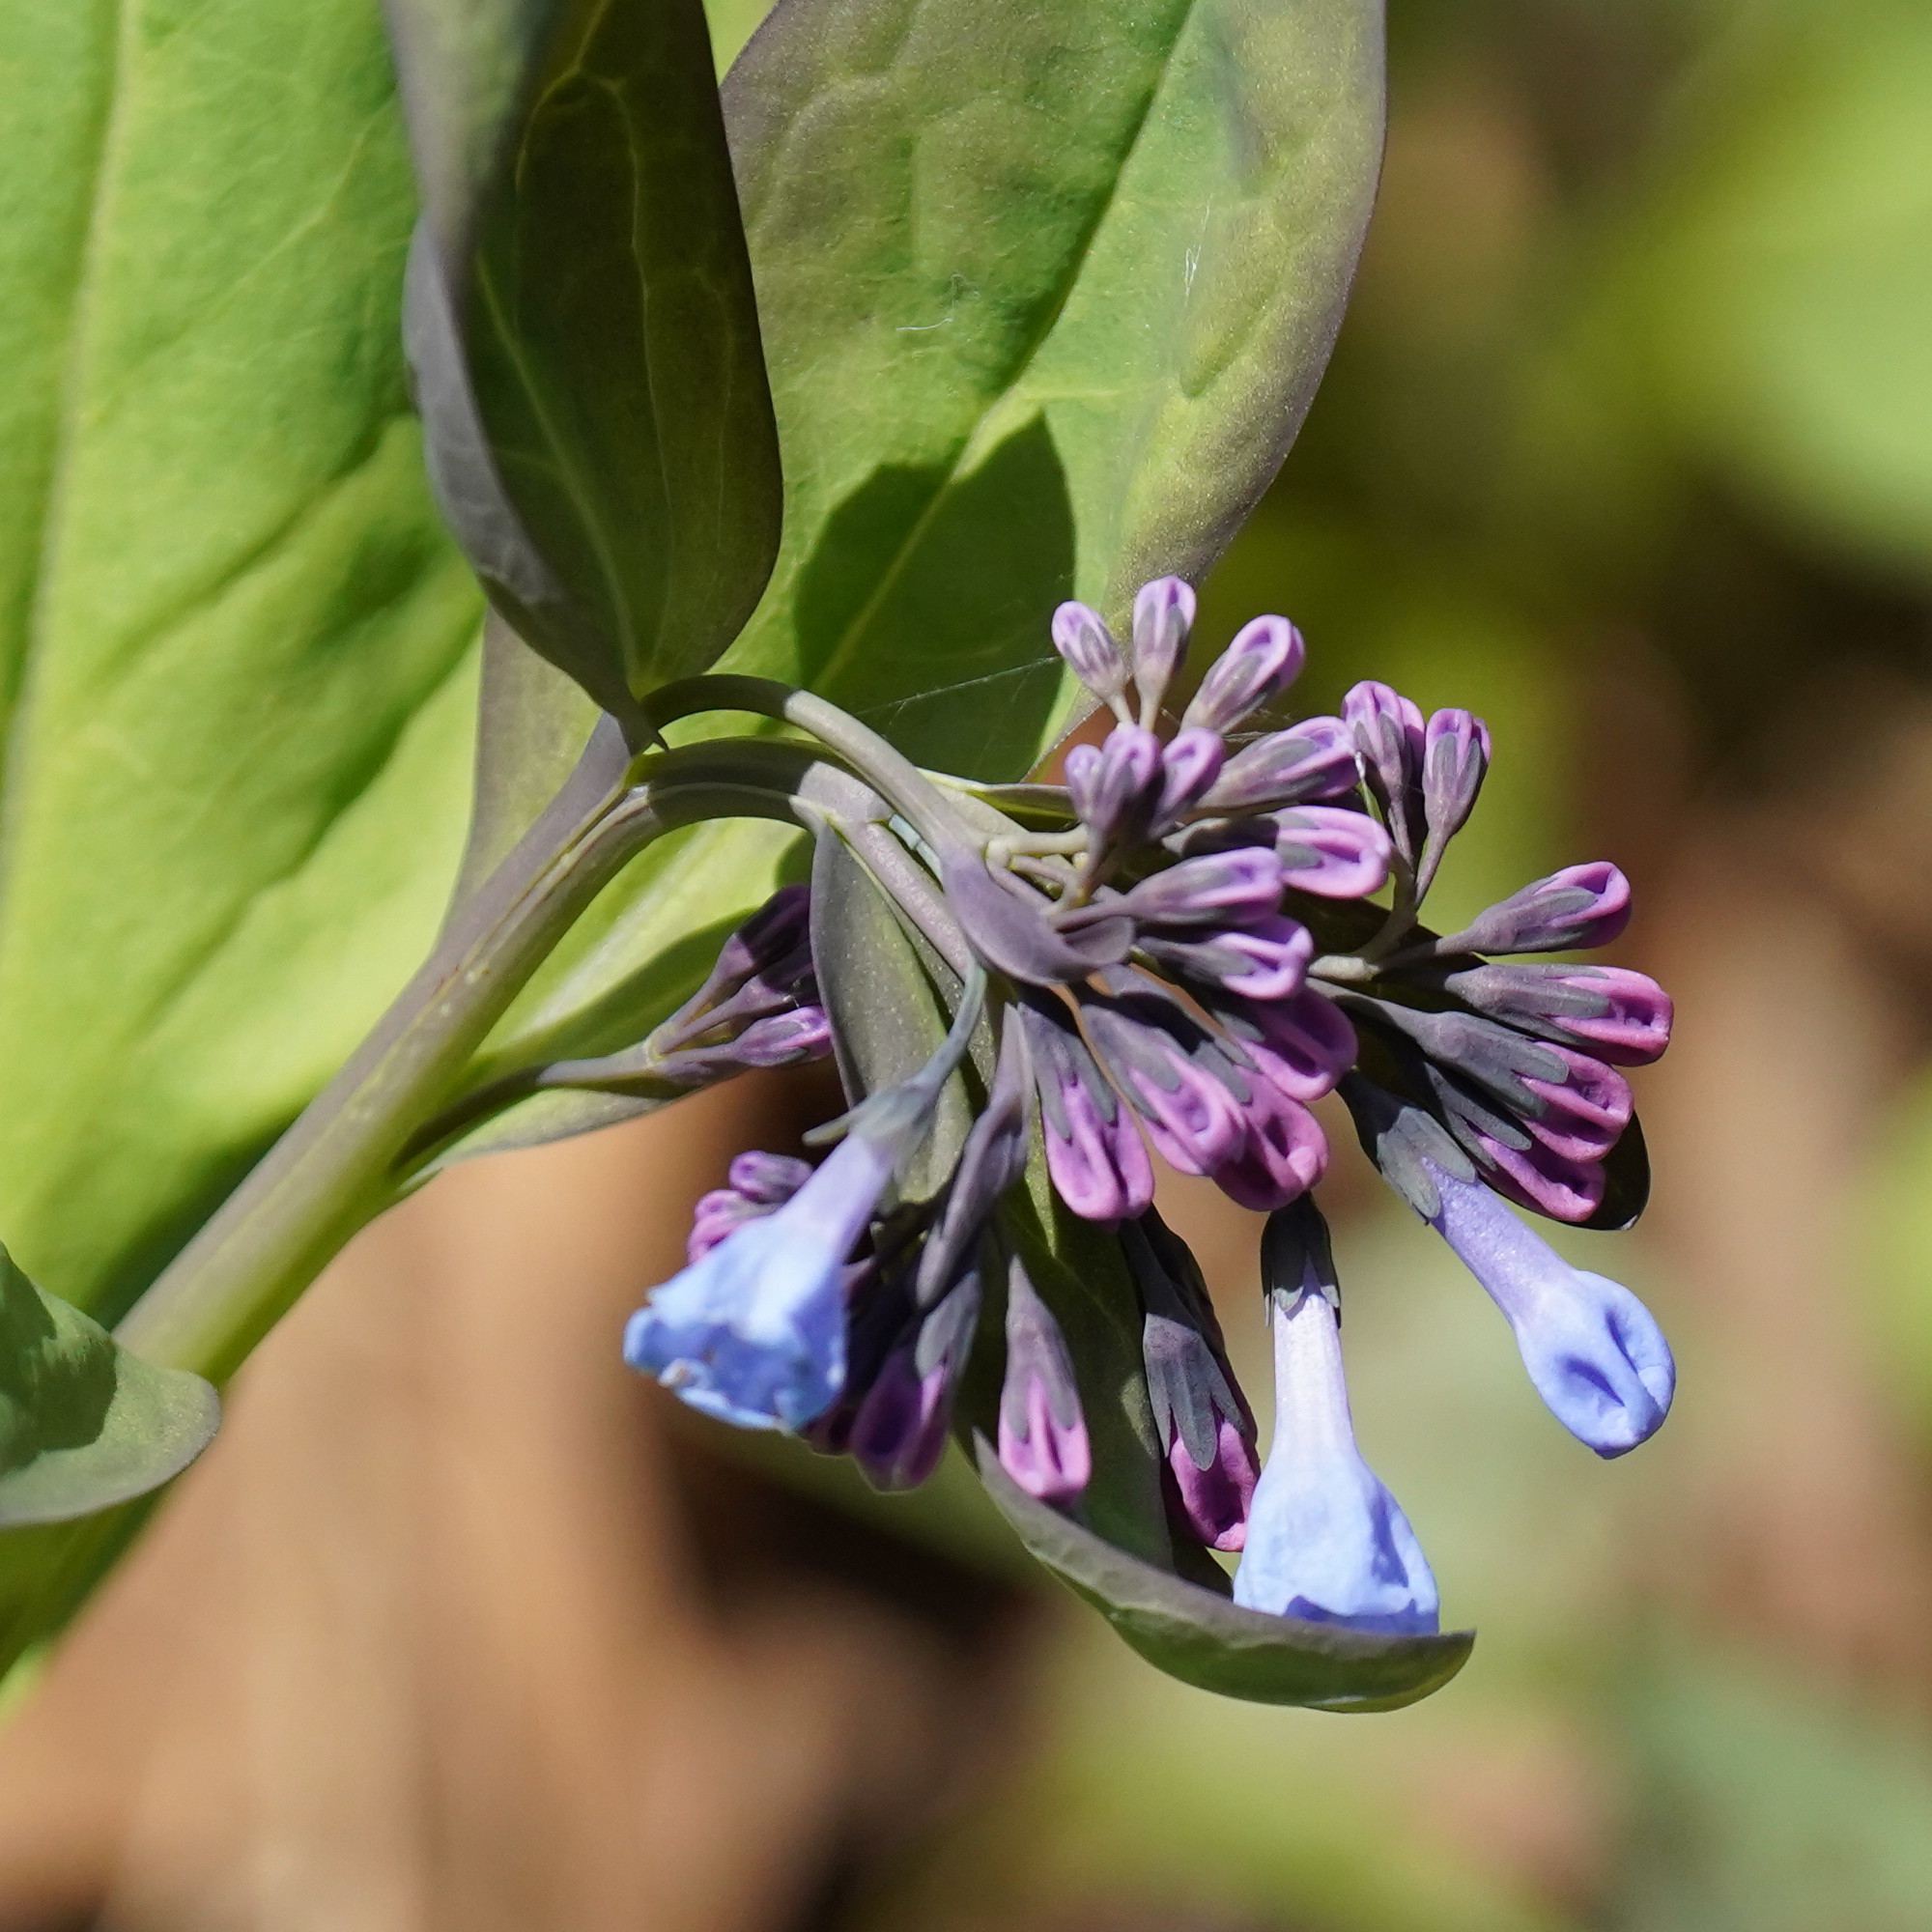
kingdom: Plantae
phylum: Tracheophyta
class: Magnoliopsida
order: Boraginales
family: Boraginaceae
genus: Mertensia
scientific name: Mertensia virginica
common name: Virginia bluebells
